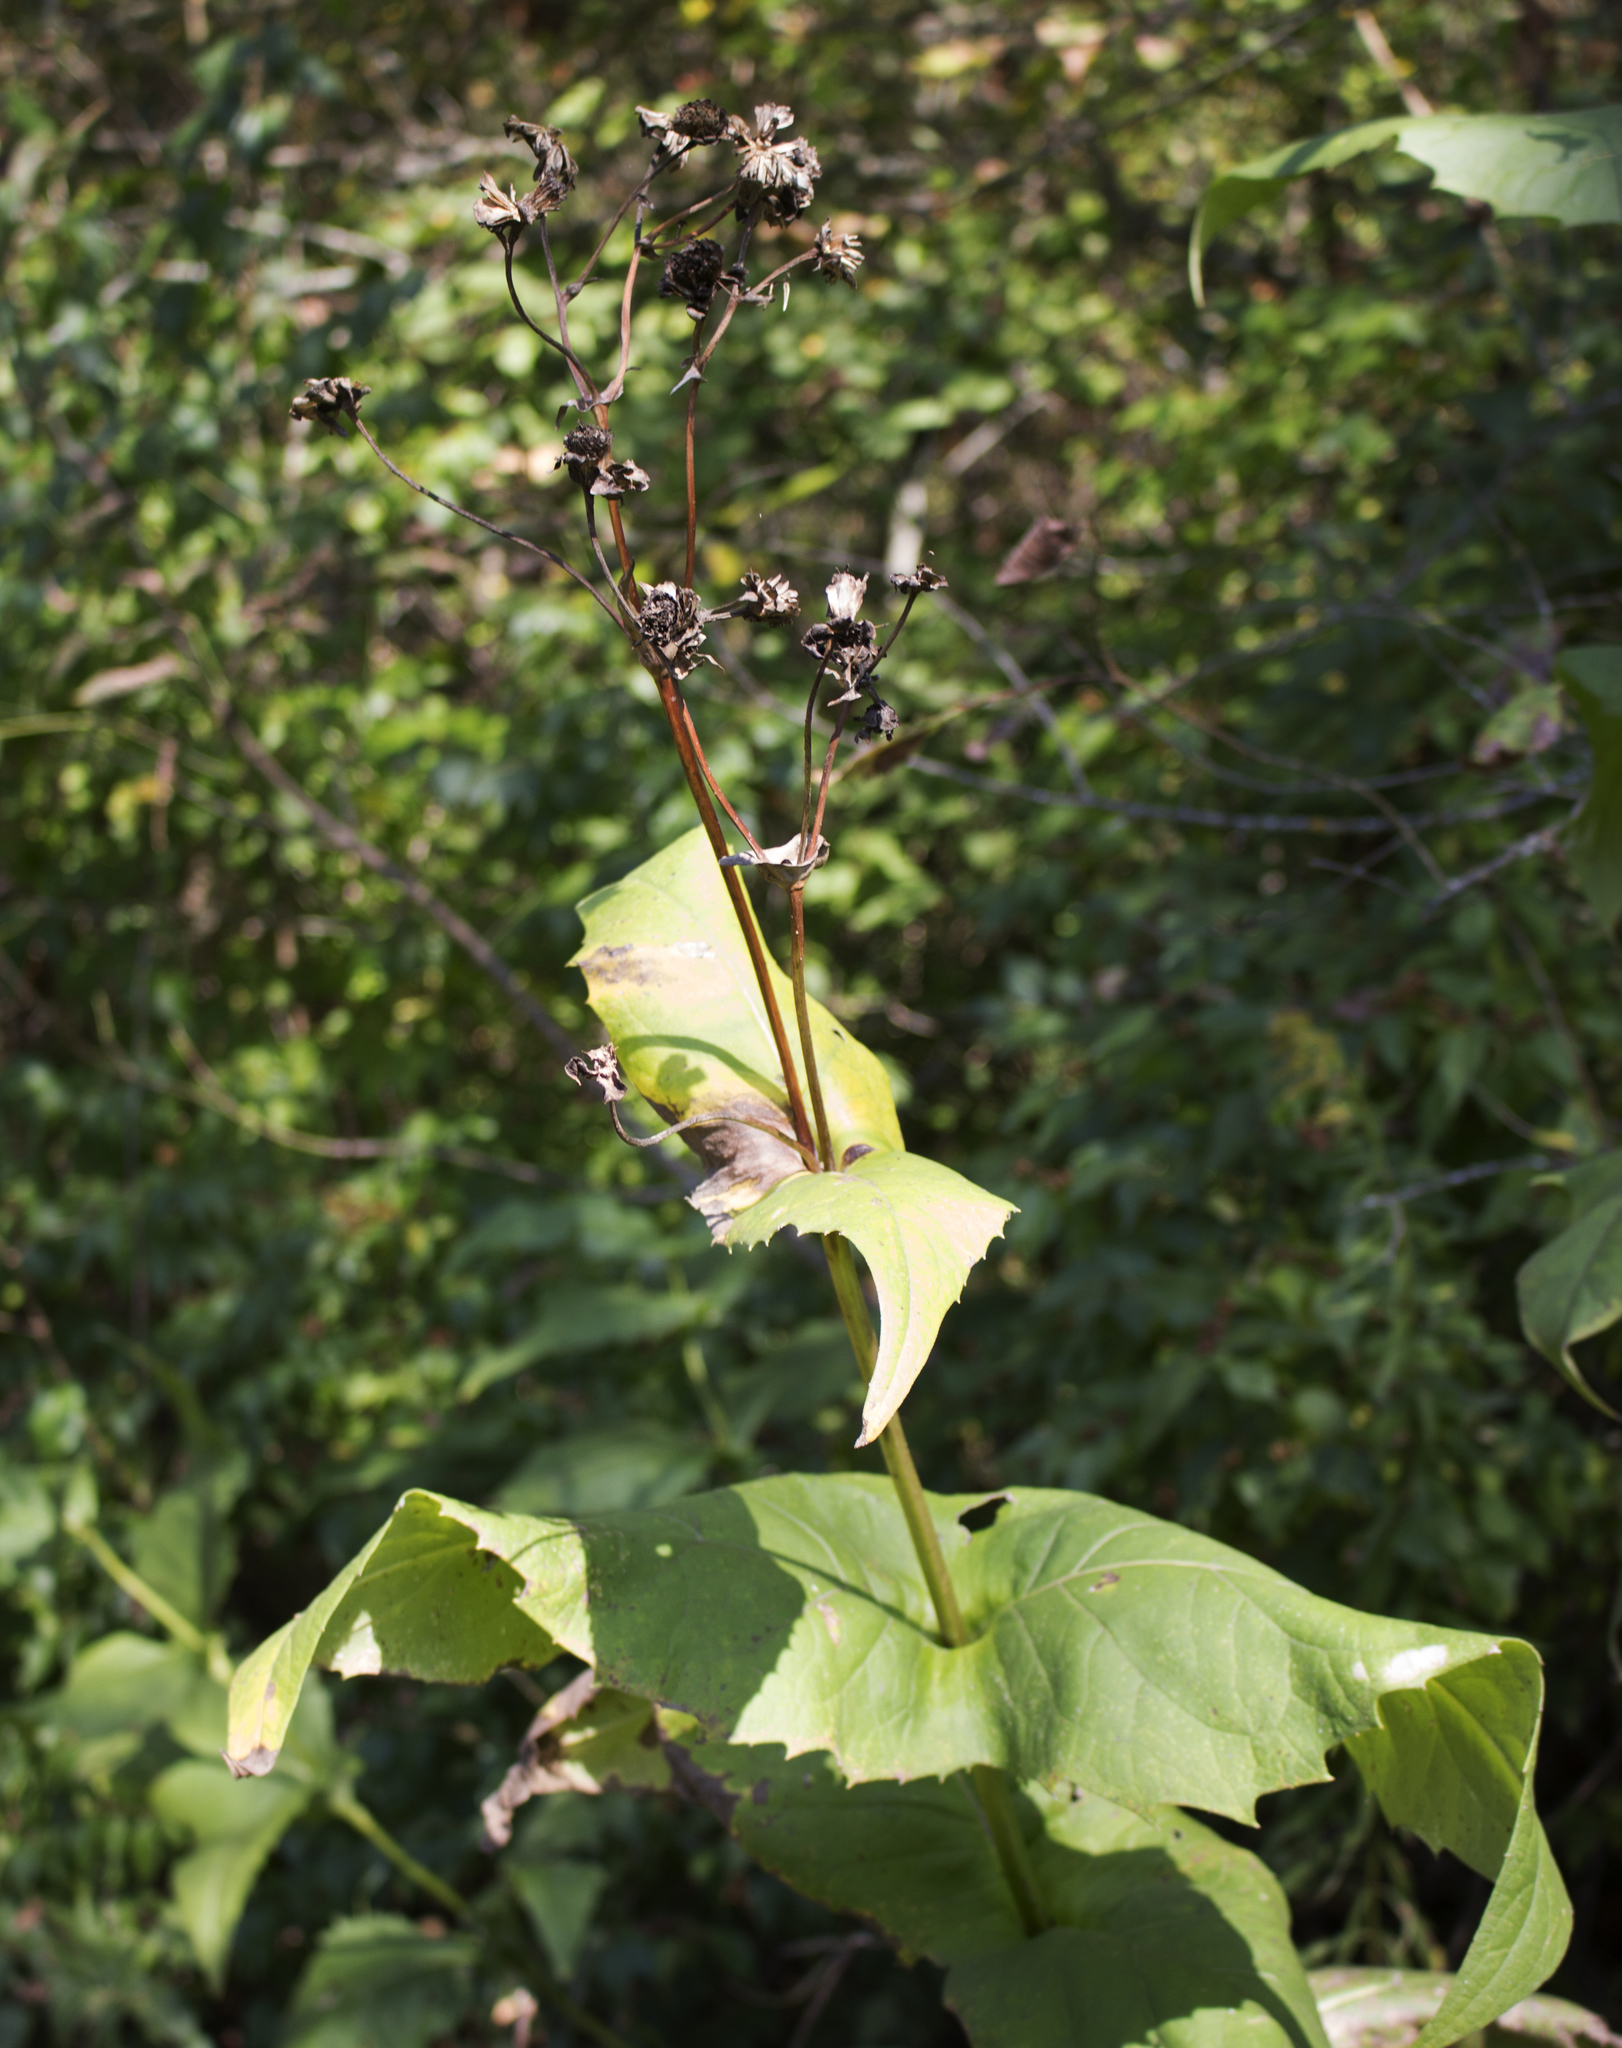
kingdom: Plantae
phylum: Tracheophyta
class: Magnoliopsida
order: Asterales
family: Asteraceae
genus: Silphium
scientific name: Silphium perfoliatum
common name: Cup-plant
